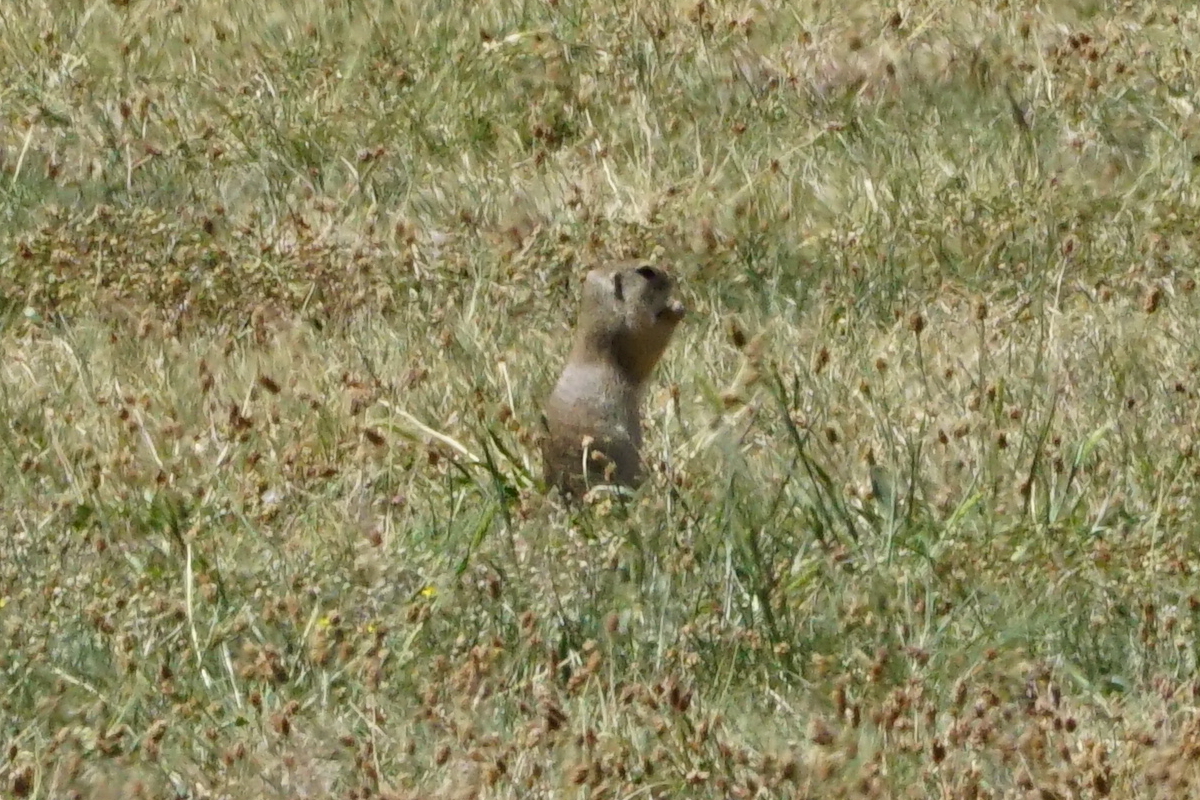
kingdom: Animalia
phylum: Chordata
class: Mammalia
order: Rodentia
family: Sciuridae
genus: Spermophilus
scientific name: Spermophilus citellus
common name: European ground squirrel
